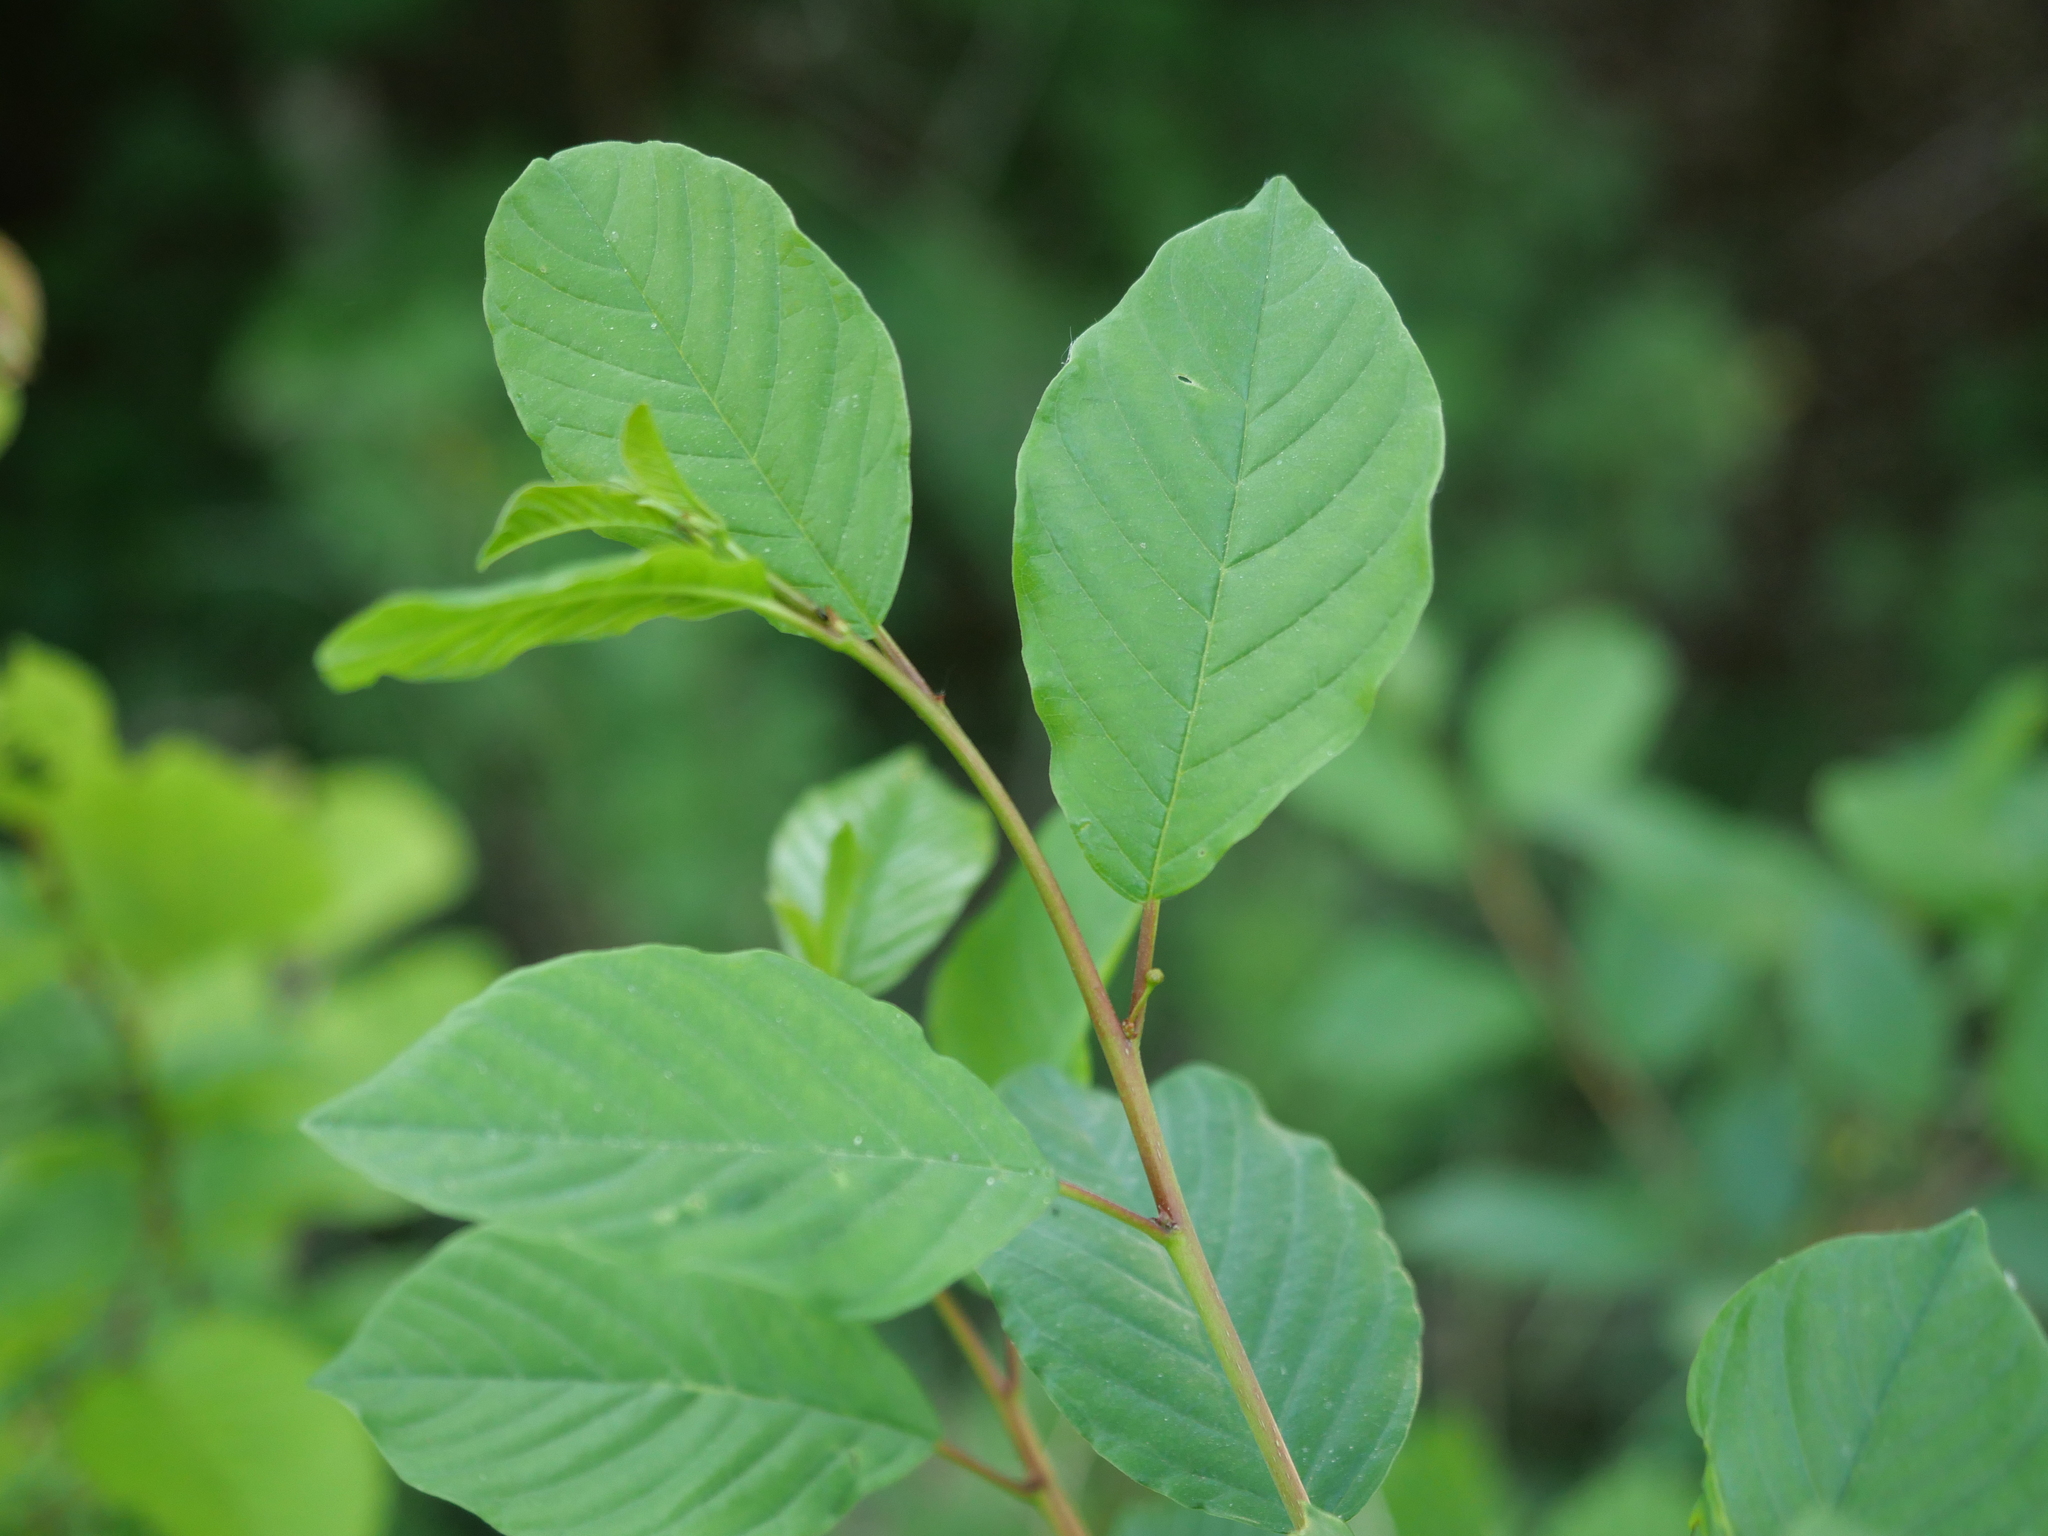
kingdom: Plantae
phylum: Tracheophyta
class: Magnoliopsida
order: Rosales
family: Rhamnaceae
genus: Frangula
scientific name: Frangula alnus
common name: Alder buckthorn
